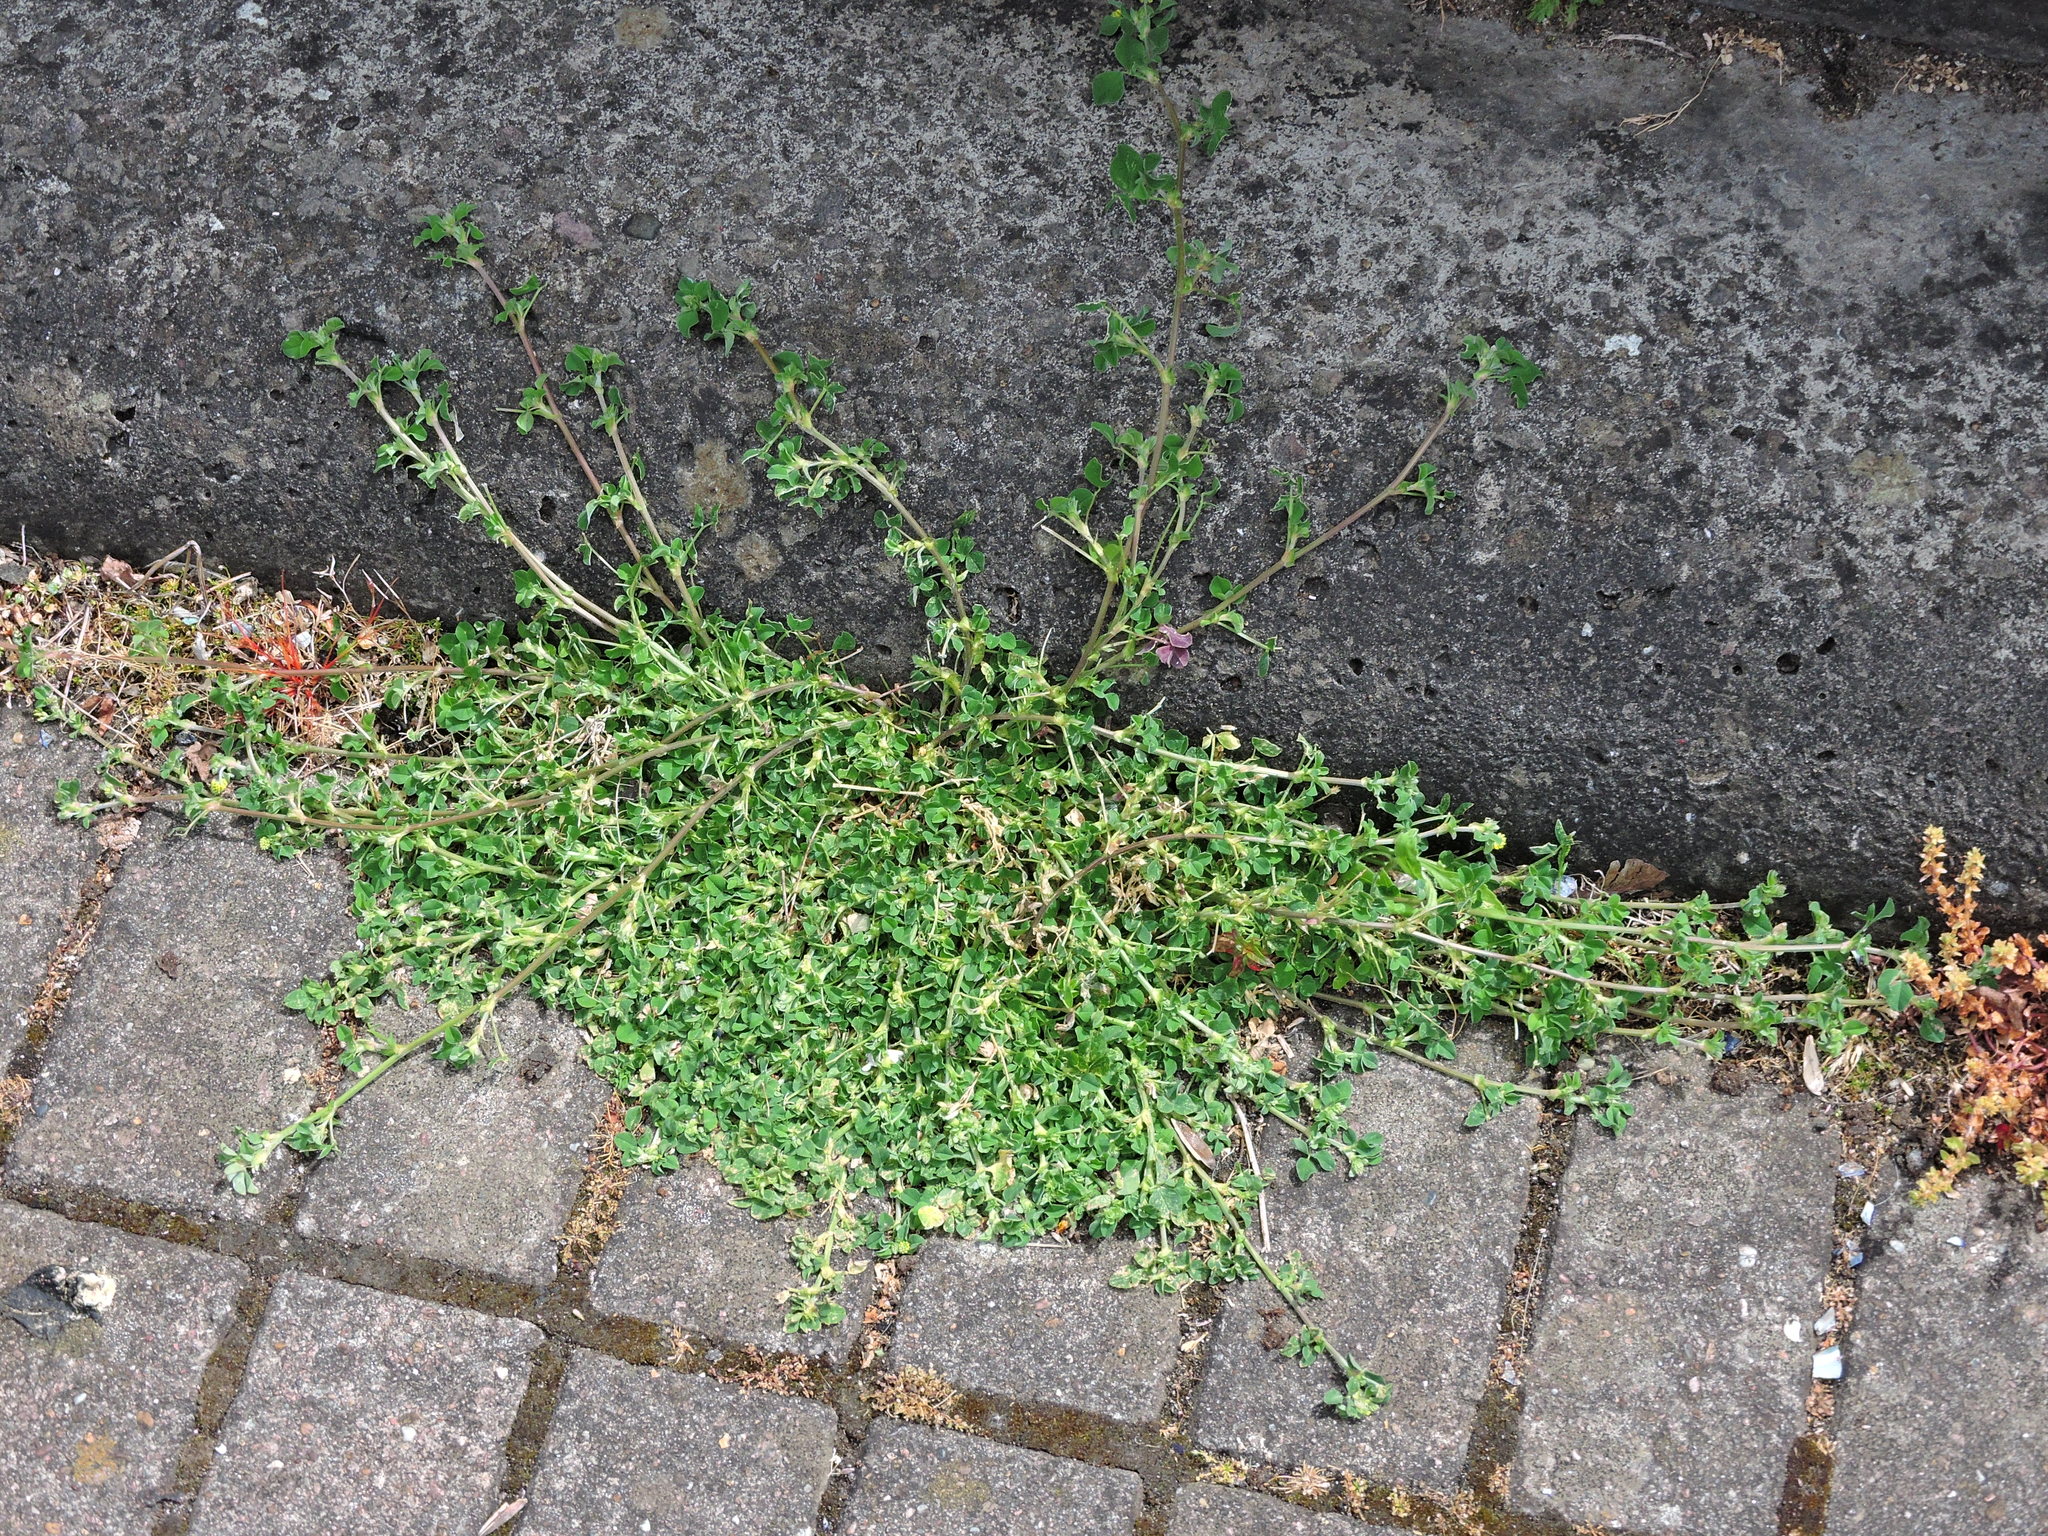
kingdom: Plantae
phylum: Tracheophyta
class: Magnoliopsida
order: Fabales
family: Fabaceae
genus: Medicago
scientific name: Medicago lupulina
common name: Black medick
